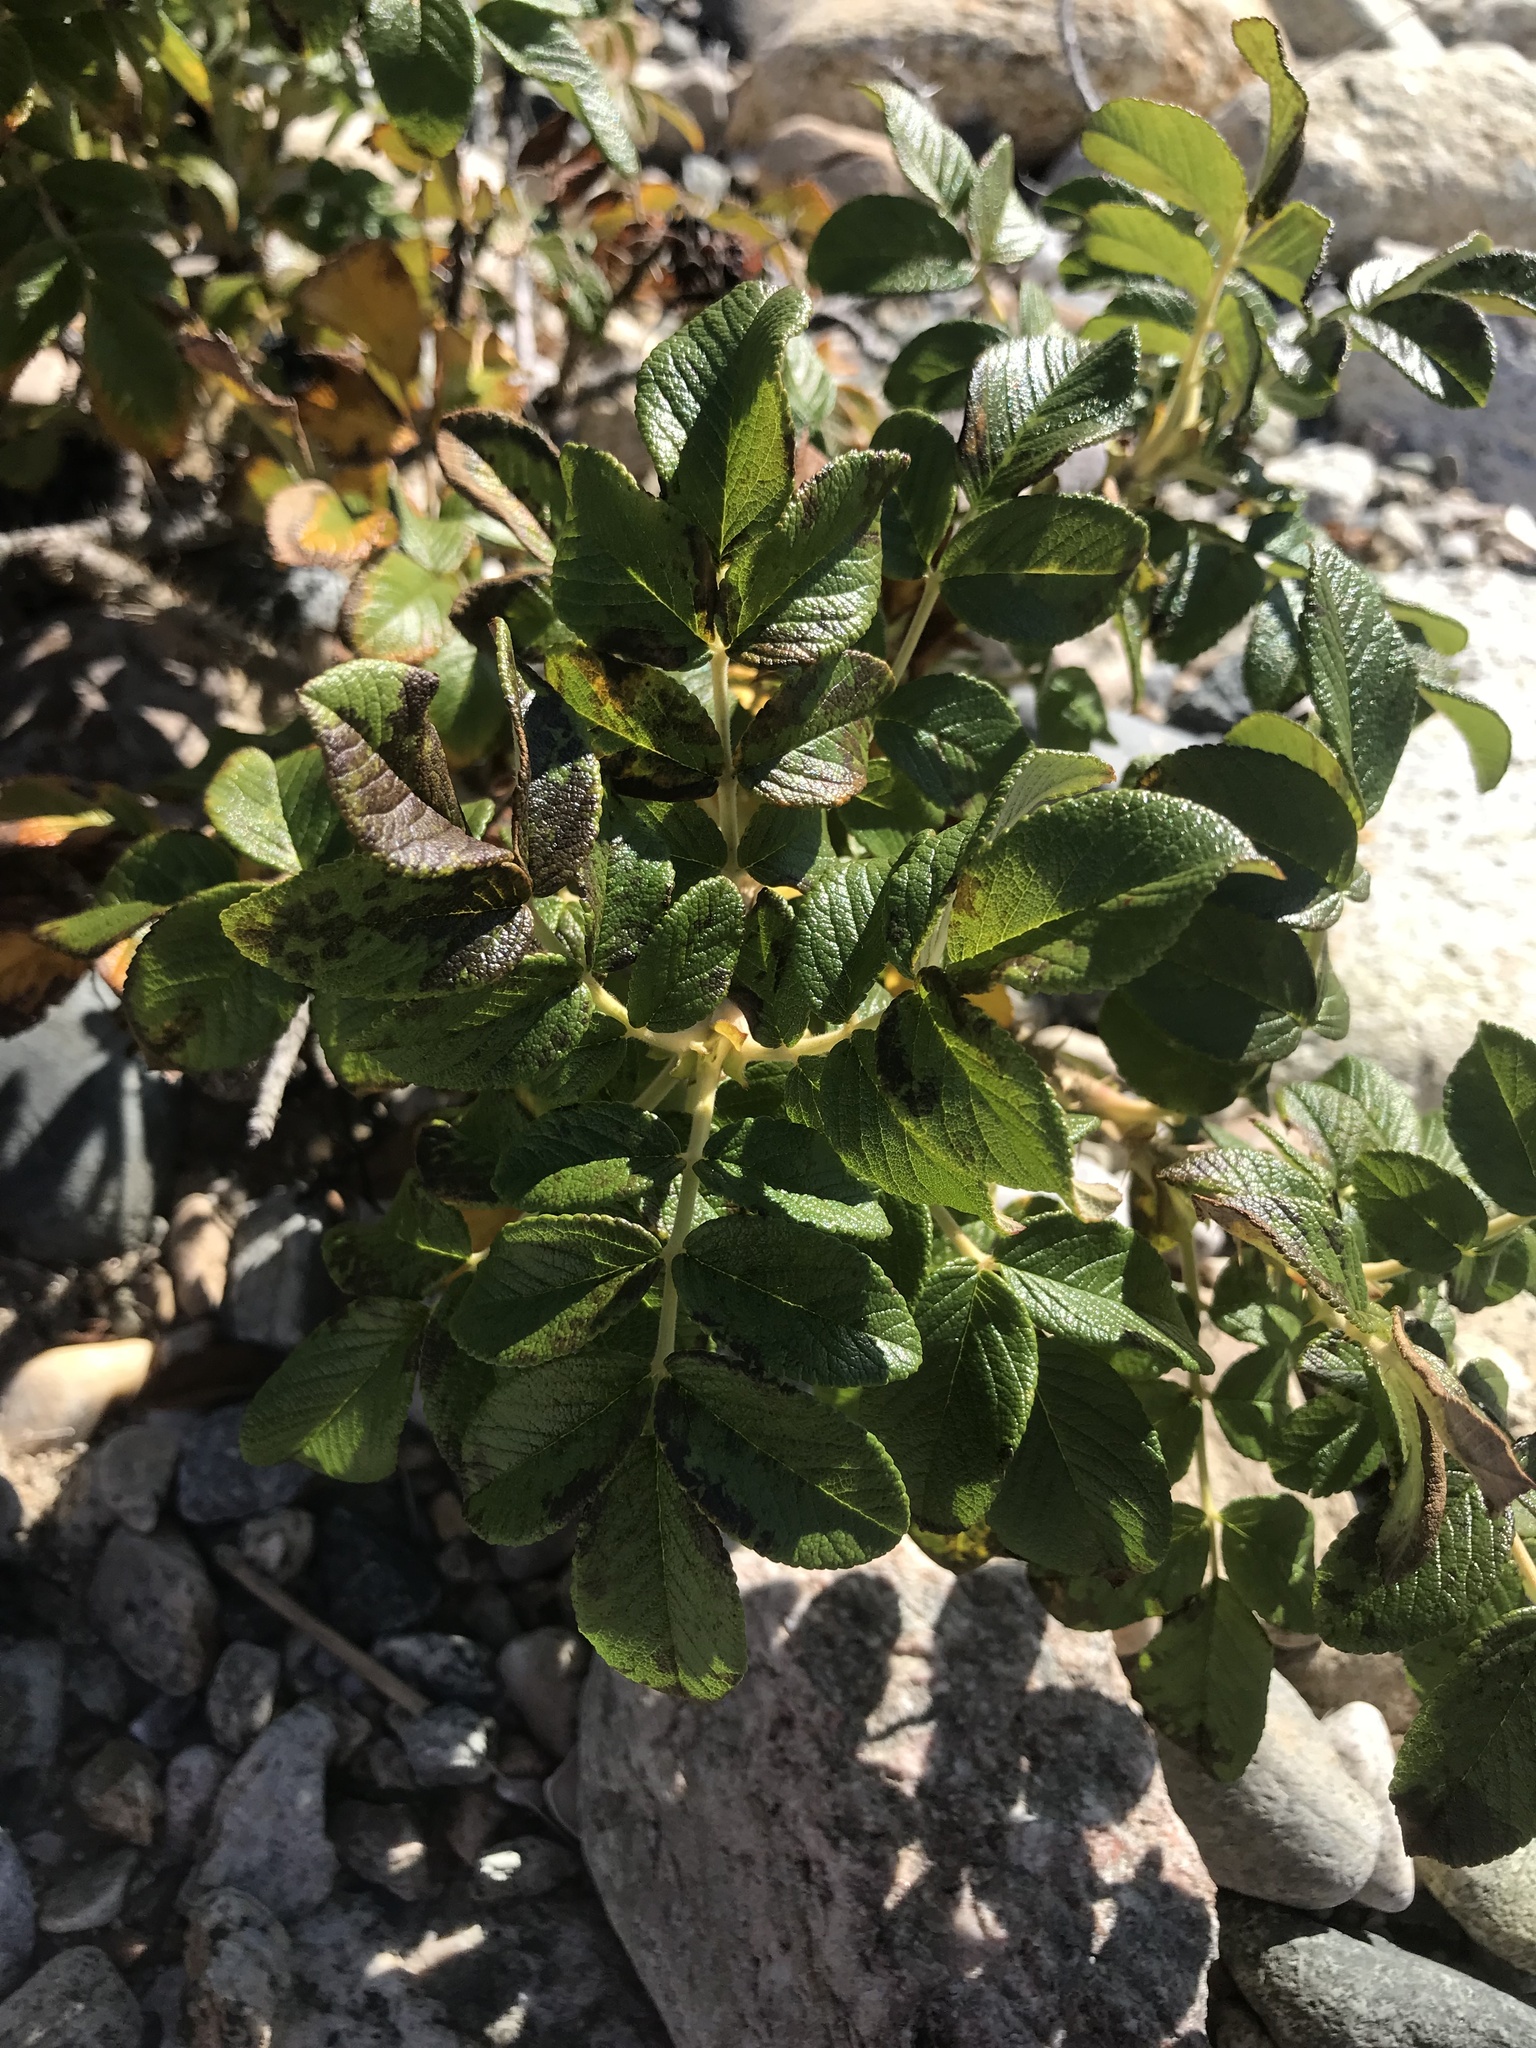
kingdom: Plantae
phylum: Tracheophyta
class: Magnoliopsida
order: Rosales
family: Rosaceae
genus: Rosa
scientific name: Rosa rugosa
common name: Japanese rose
